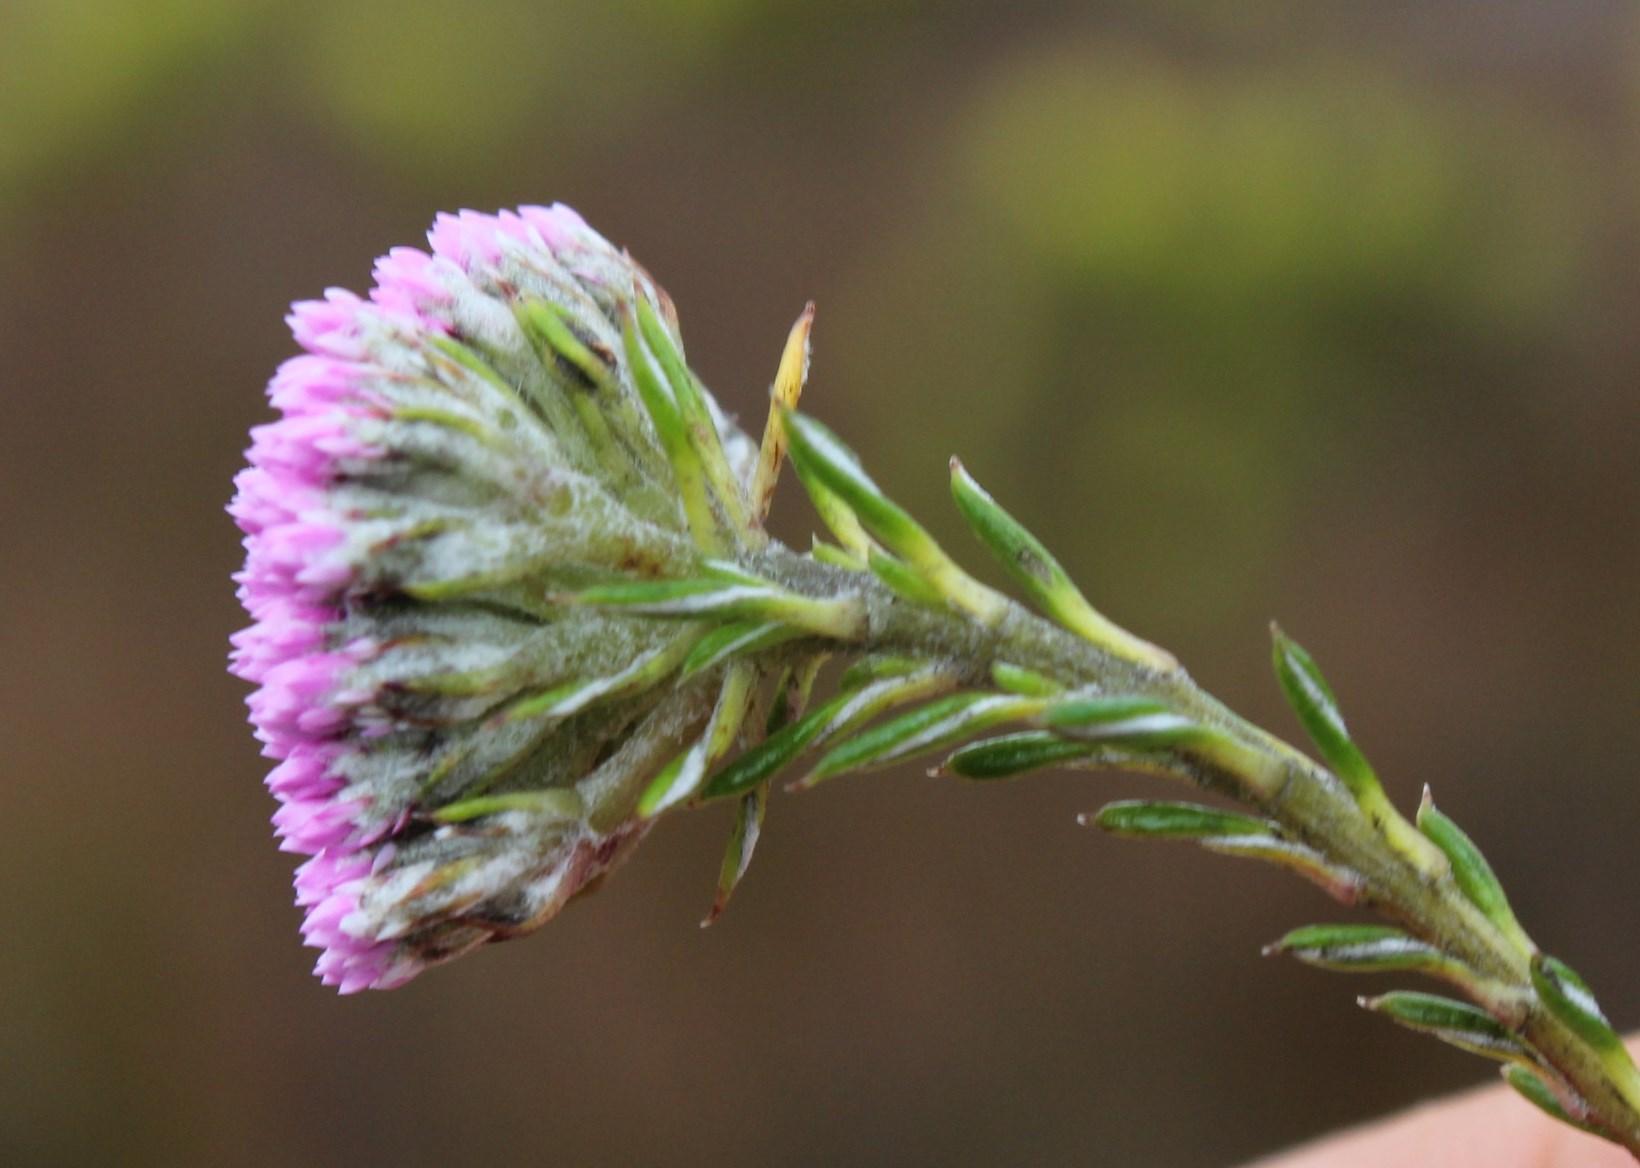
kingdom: Plantae
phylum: Tracheophyta
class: Magnoliopsida
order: Asterales
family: Asteraceae
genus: Metalasia
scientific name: Metalasia erubescens
